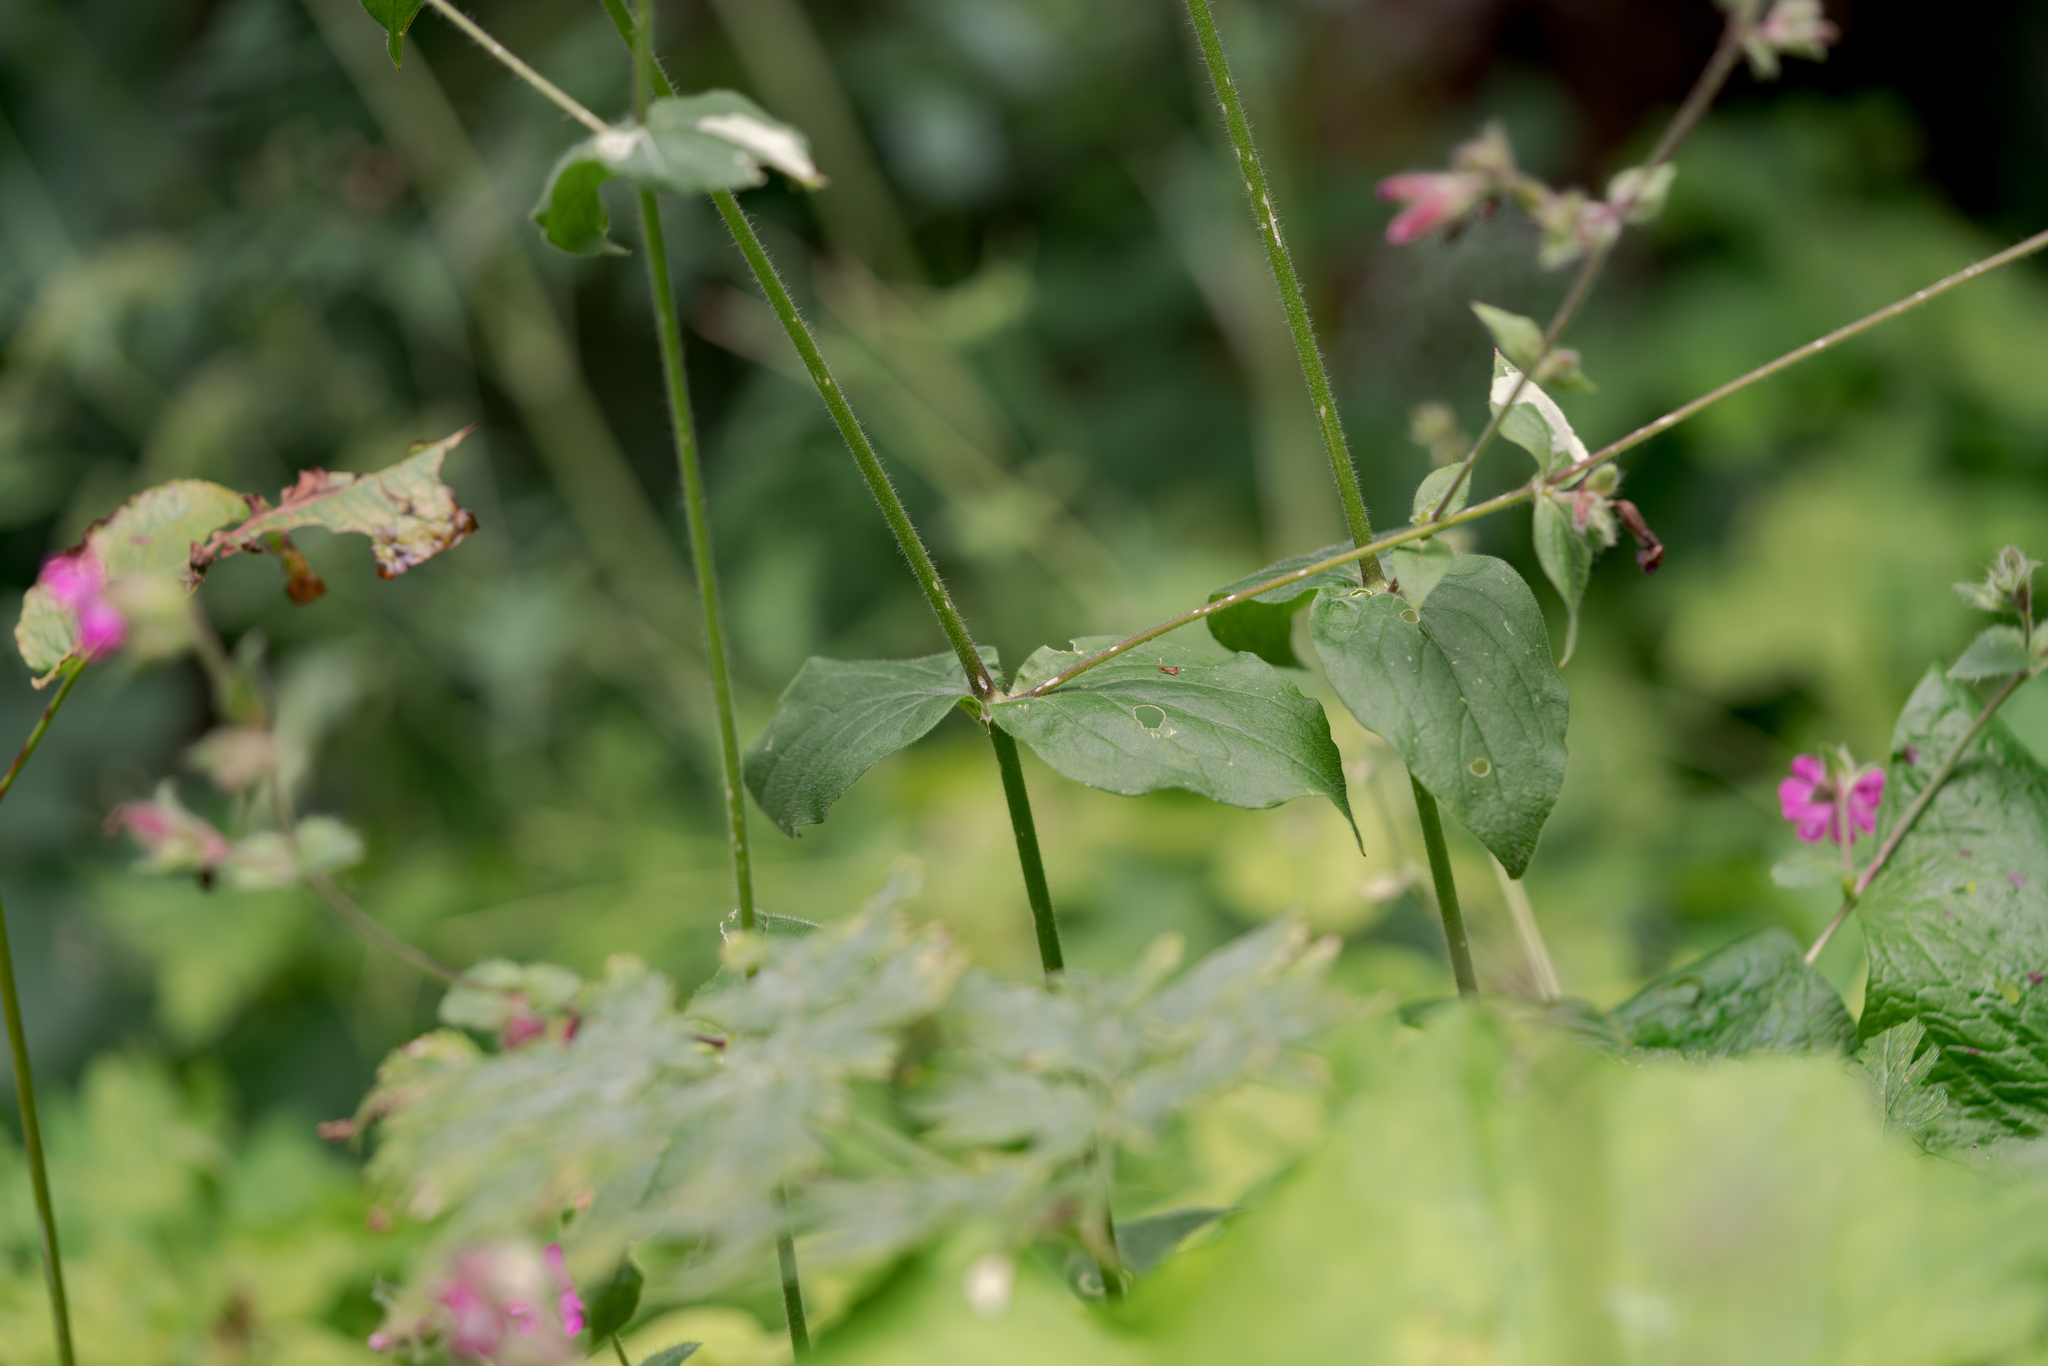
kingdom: Plantae
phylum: Tracheophyta
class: Magnoliopsida
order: Caryophyllales
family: Caryophyllaceae
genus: Silene
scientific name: Silene dioica
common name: Red campion
